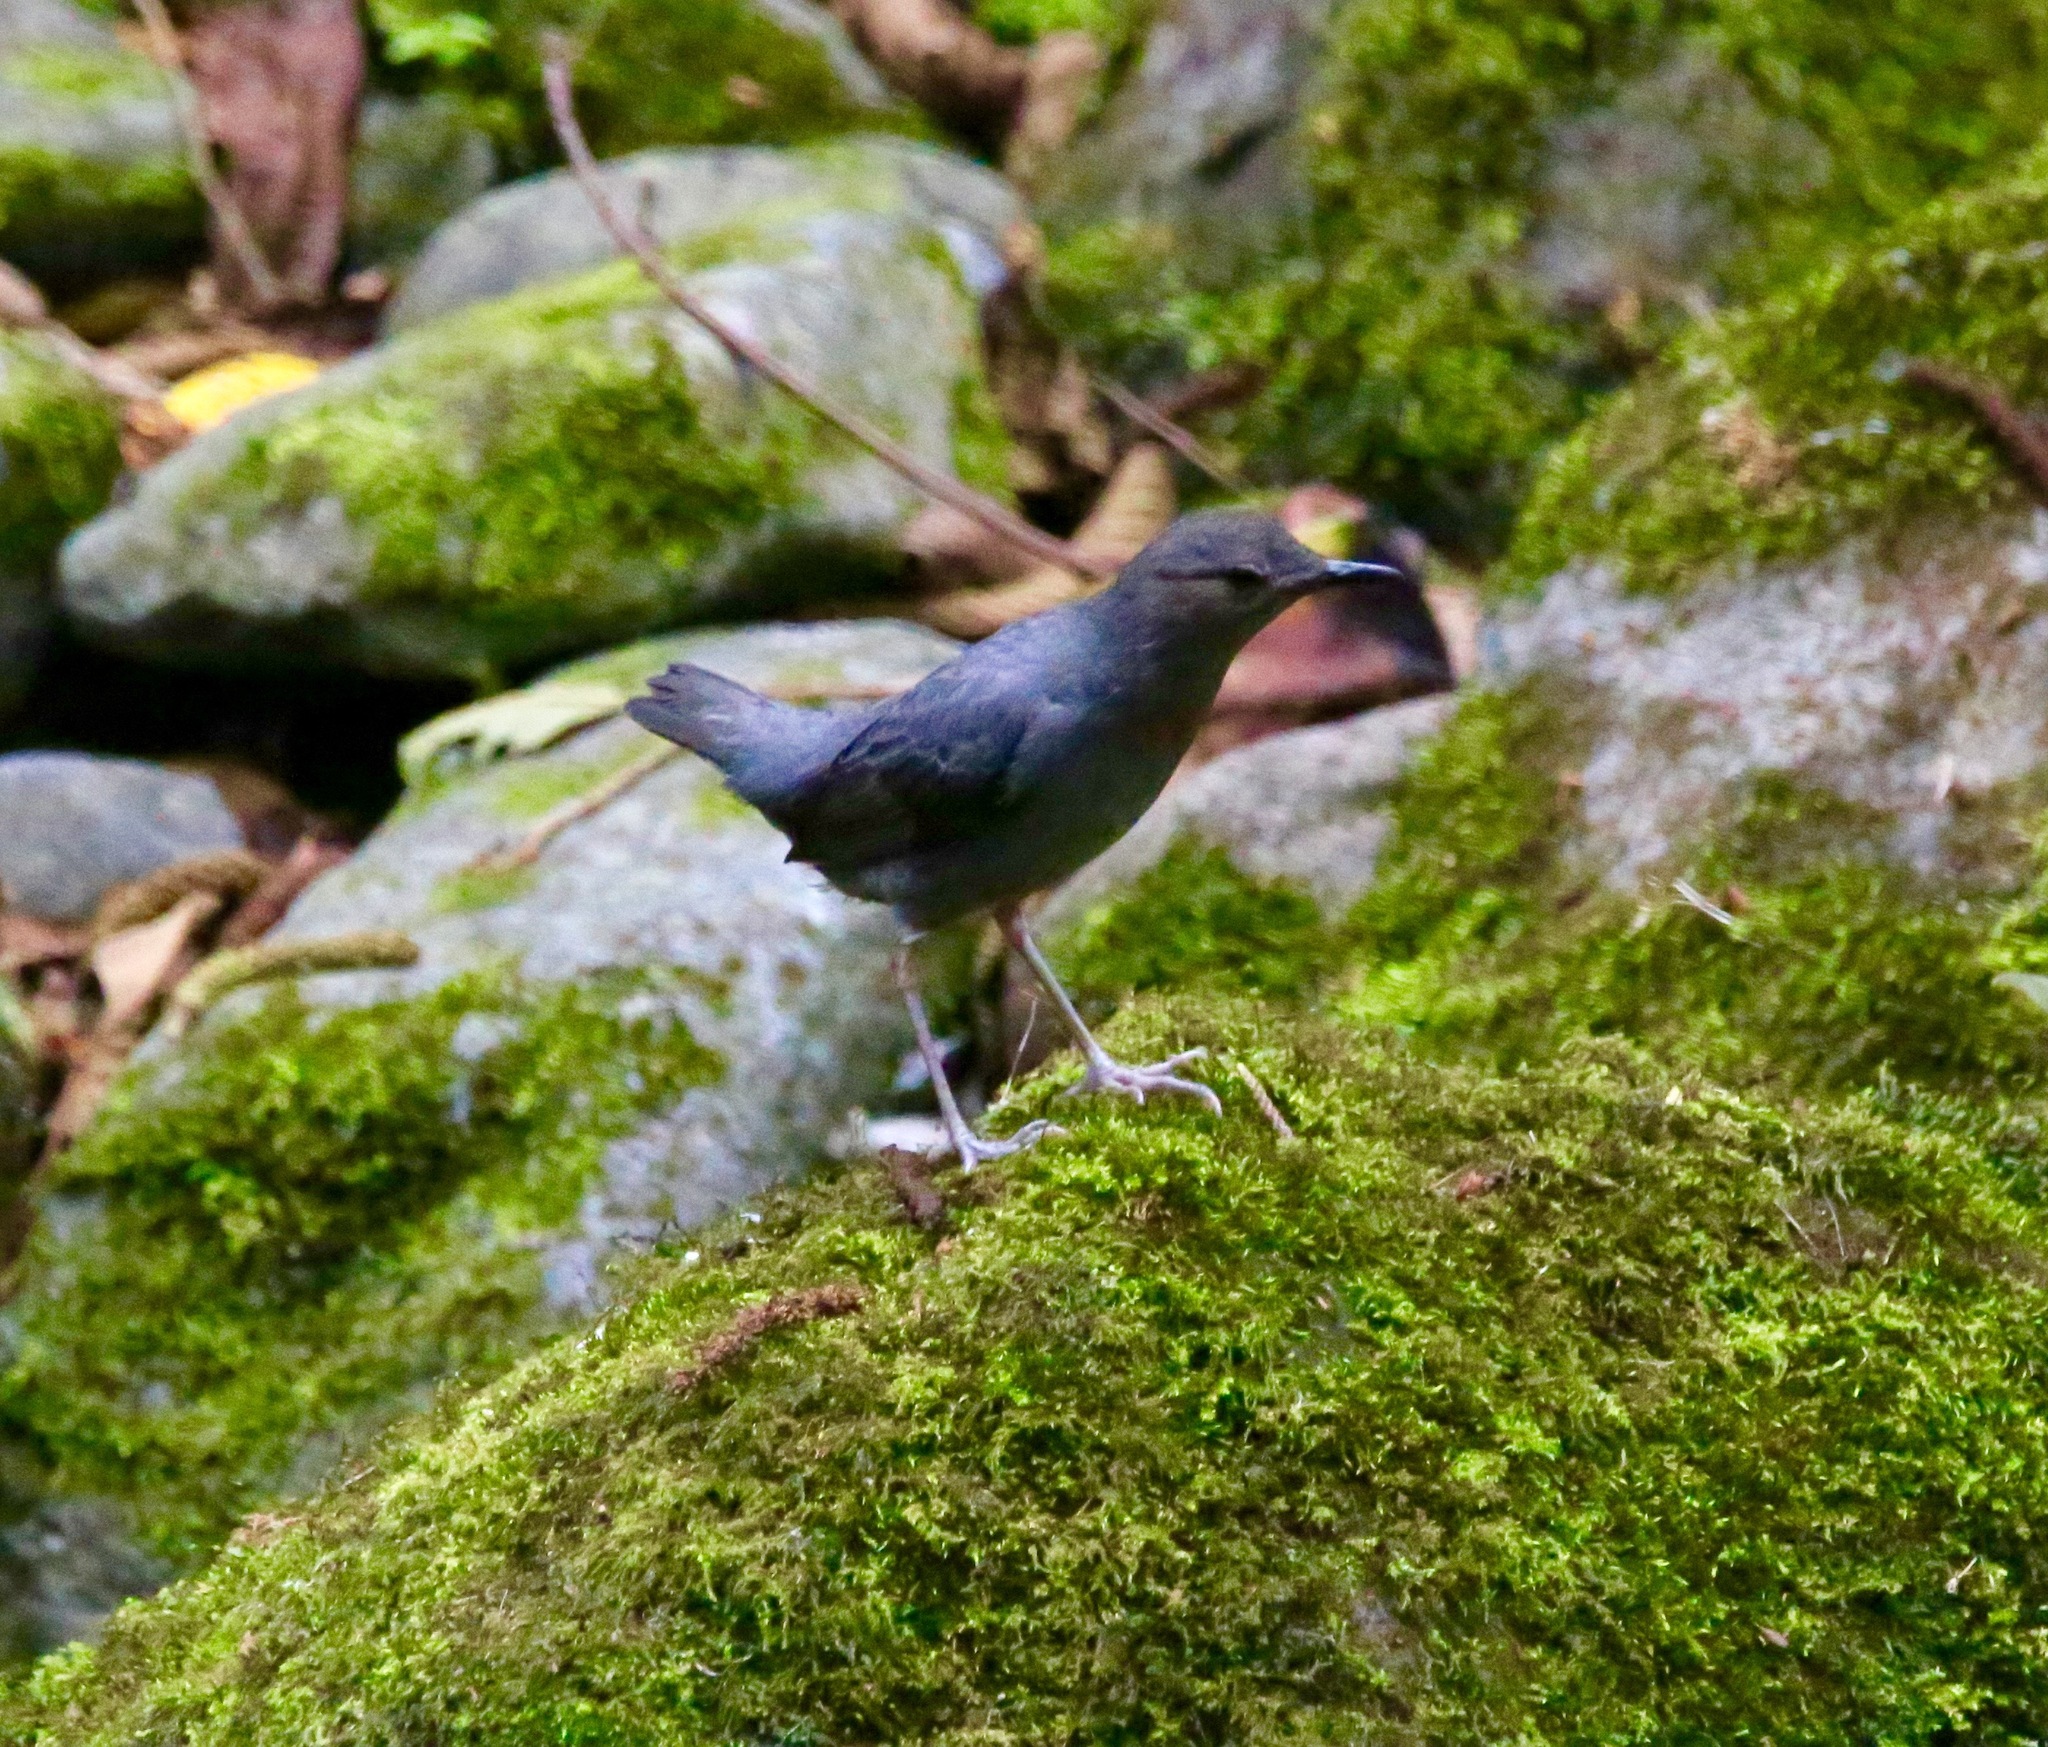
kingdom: Animalia
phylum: Chordata
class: Aves
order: Passeriformes
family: Cinclidae
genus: Cinclus
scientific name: Cinclus mexicanus
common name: American dipper
